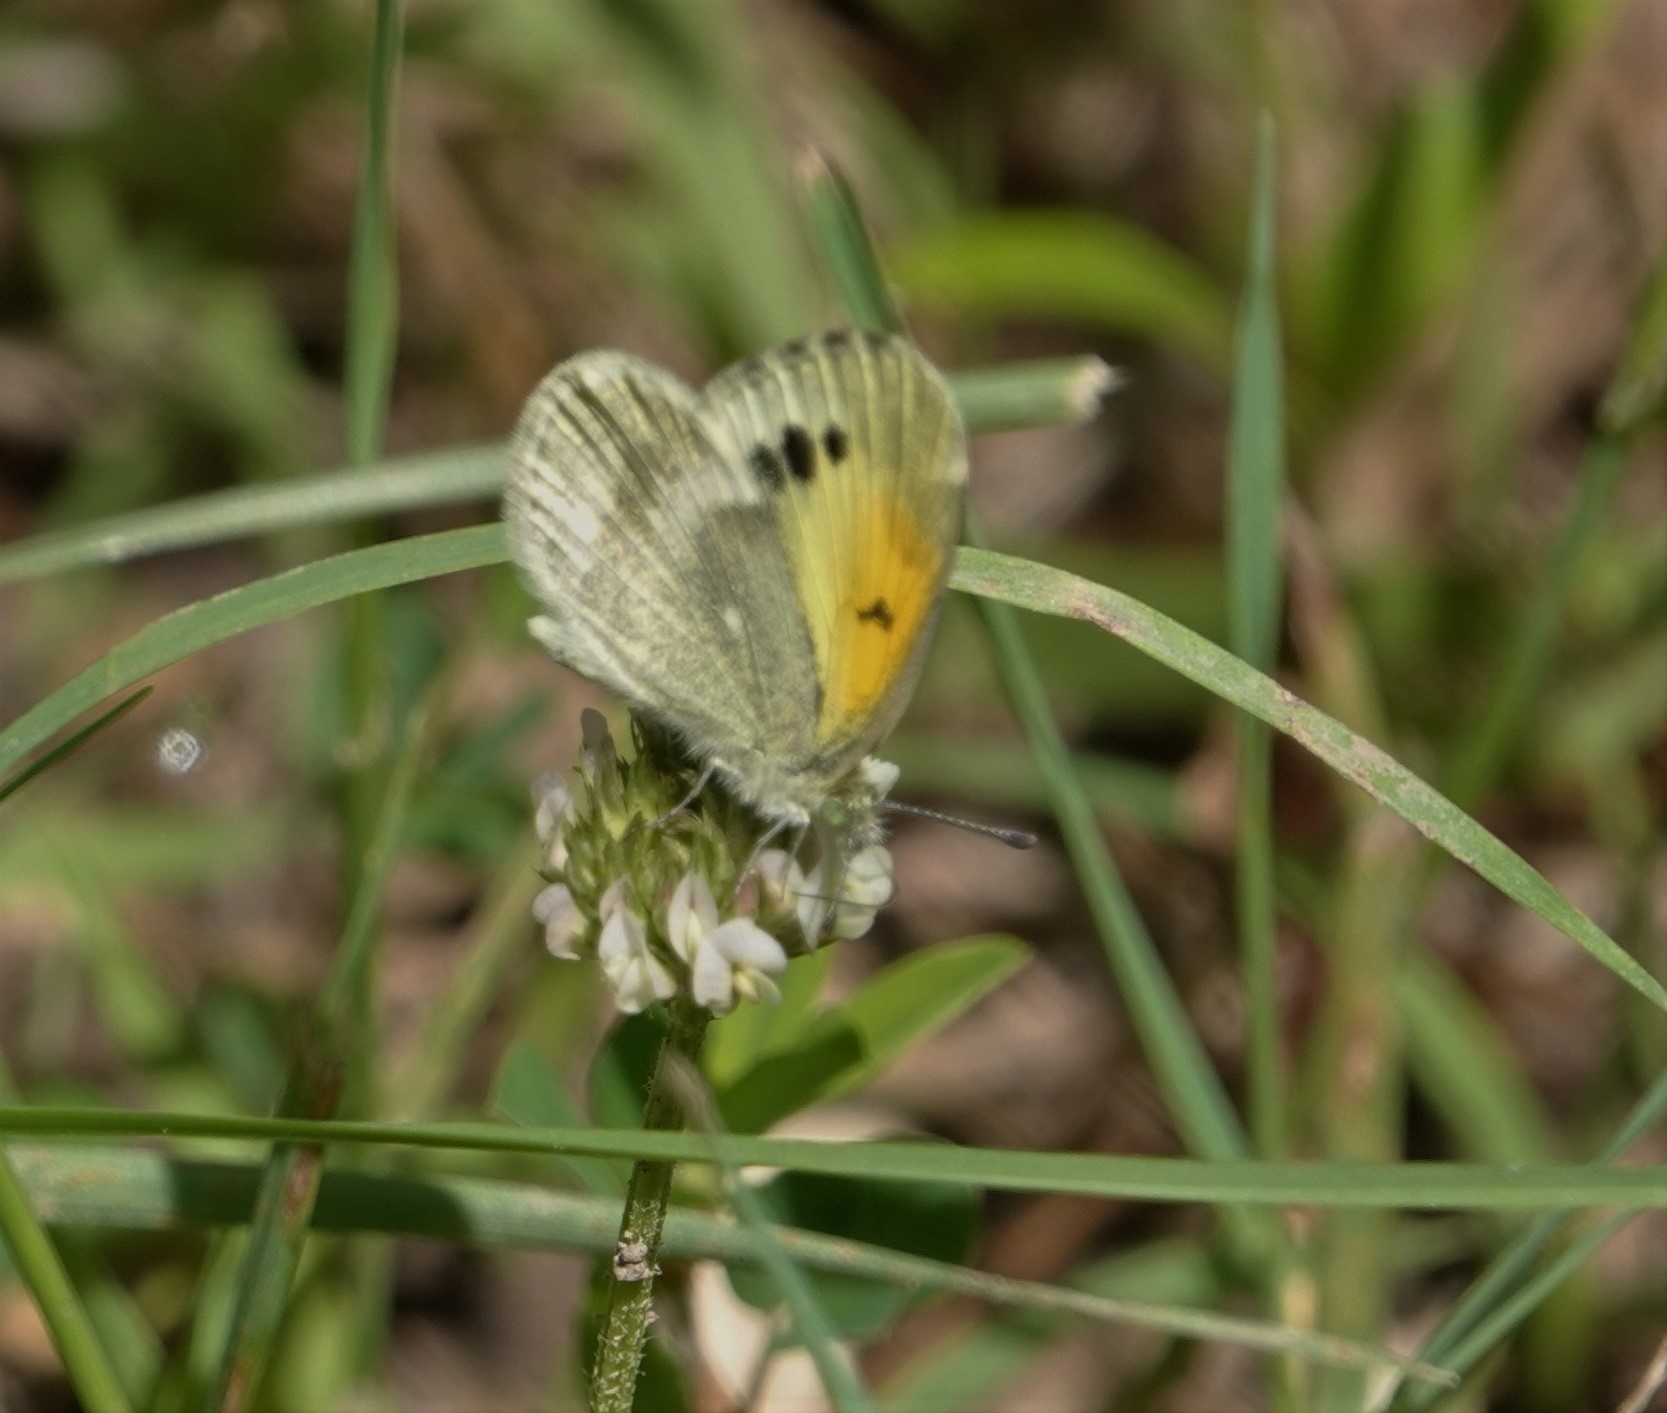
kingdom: Animalia
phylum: Arthropoda
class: Insecta
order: Lepidoptera
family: Pieridae
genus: Nathalis
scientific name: Nathalis iole
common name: Dainty sulphur
